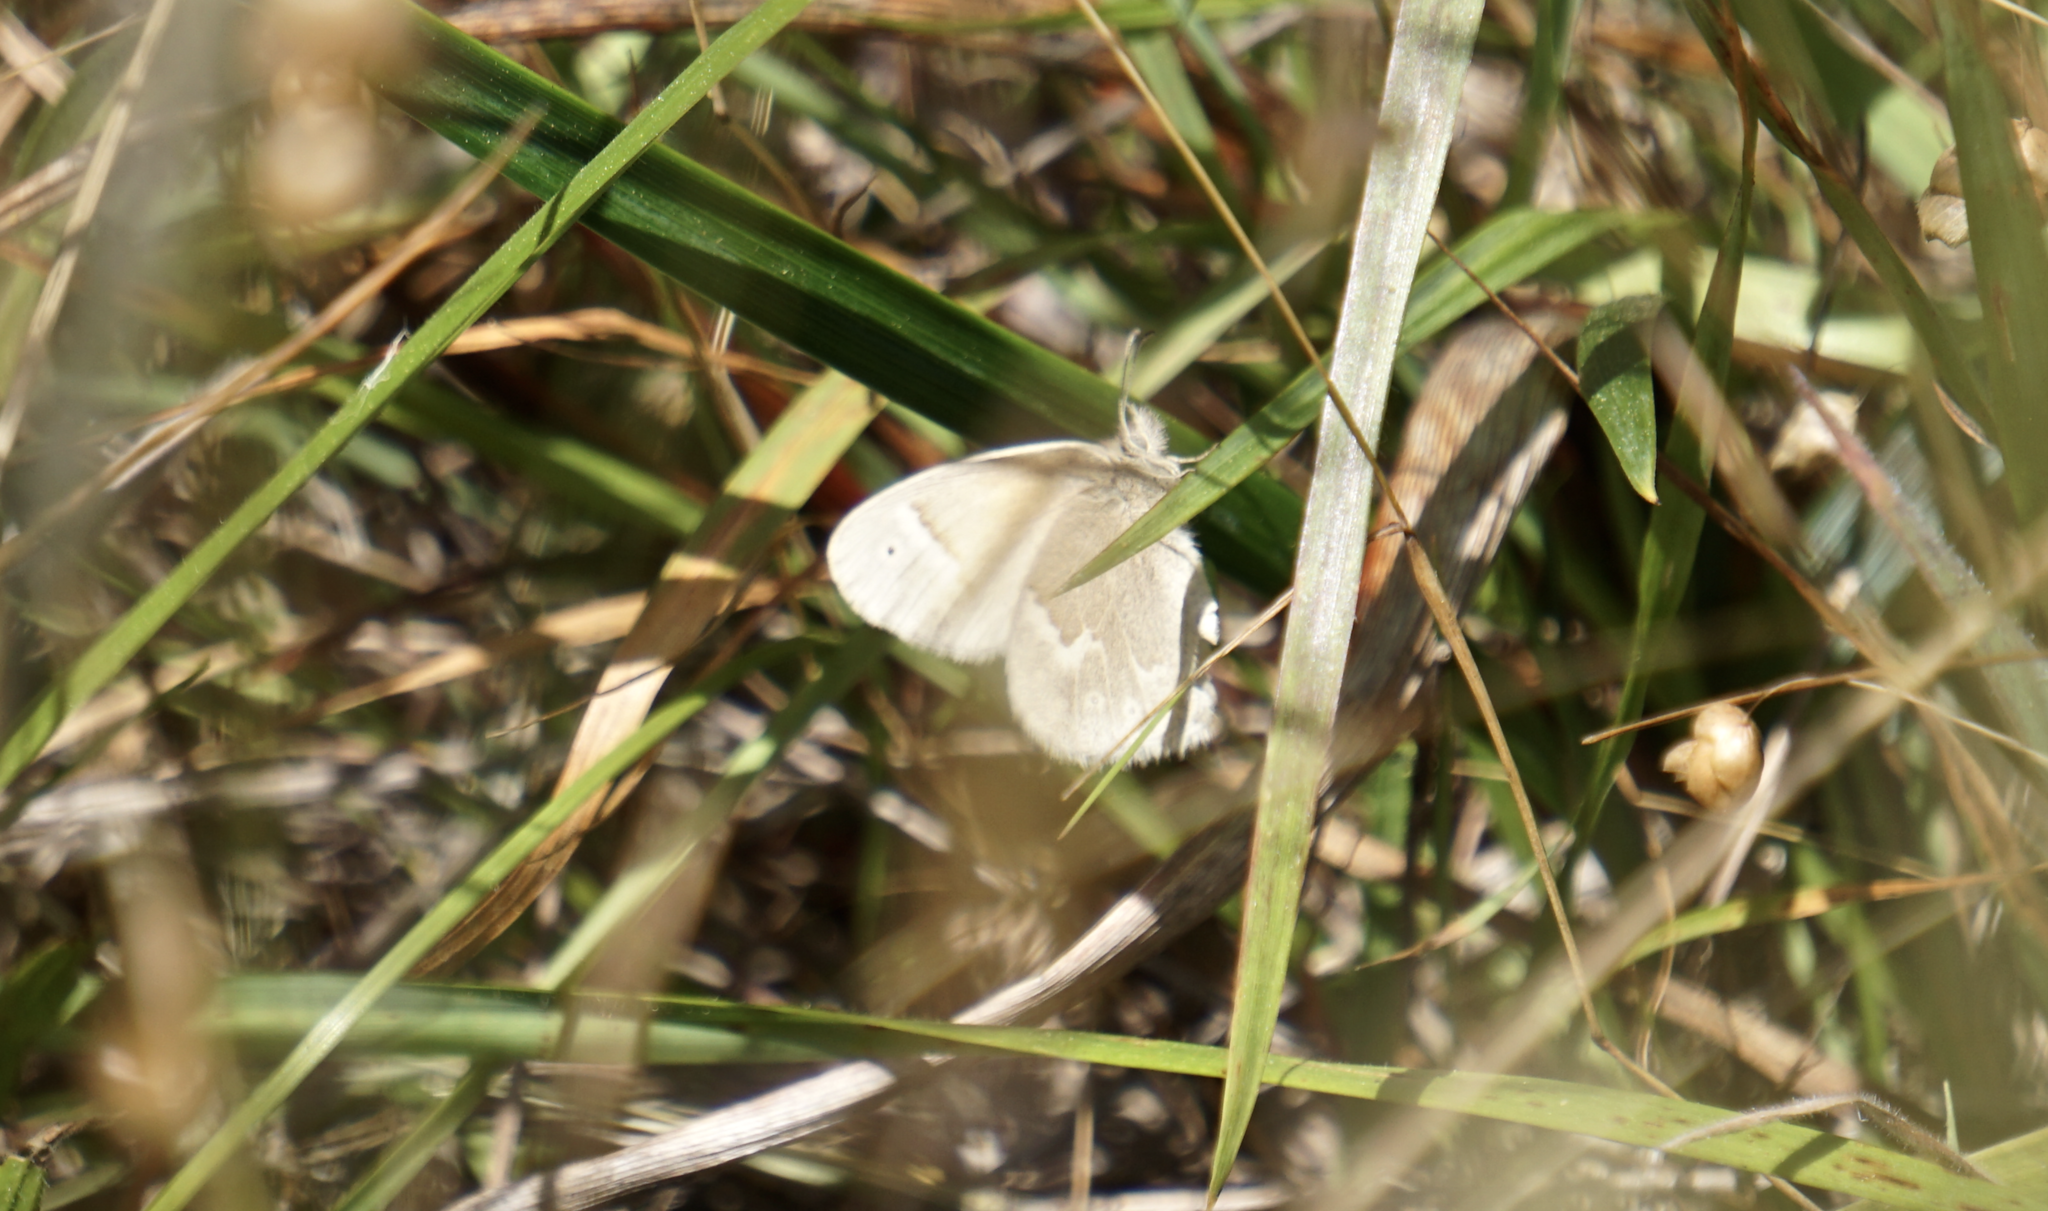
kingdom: Animalia
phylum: Arthropoda
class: Insecta
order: Lepidoptera
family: Nymphalidae
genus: Coenonympha
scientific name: Coenonympha california
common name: Common ringlet
